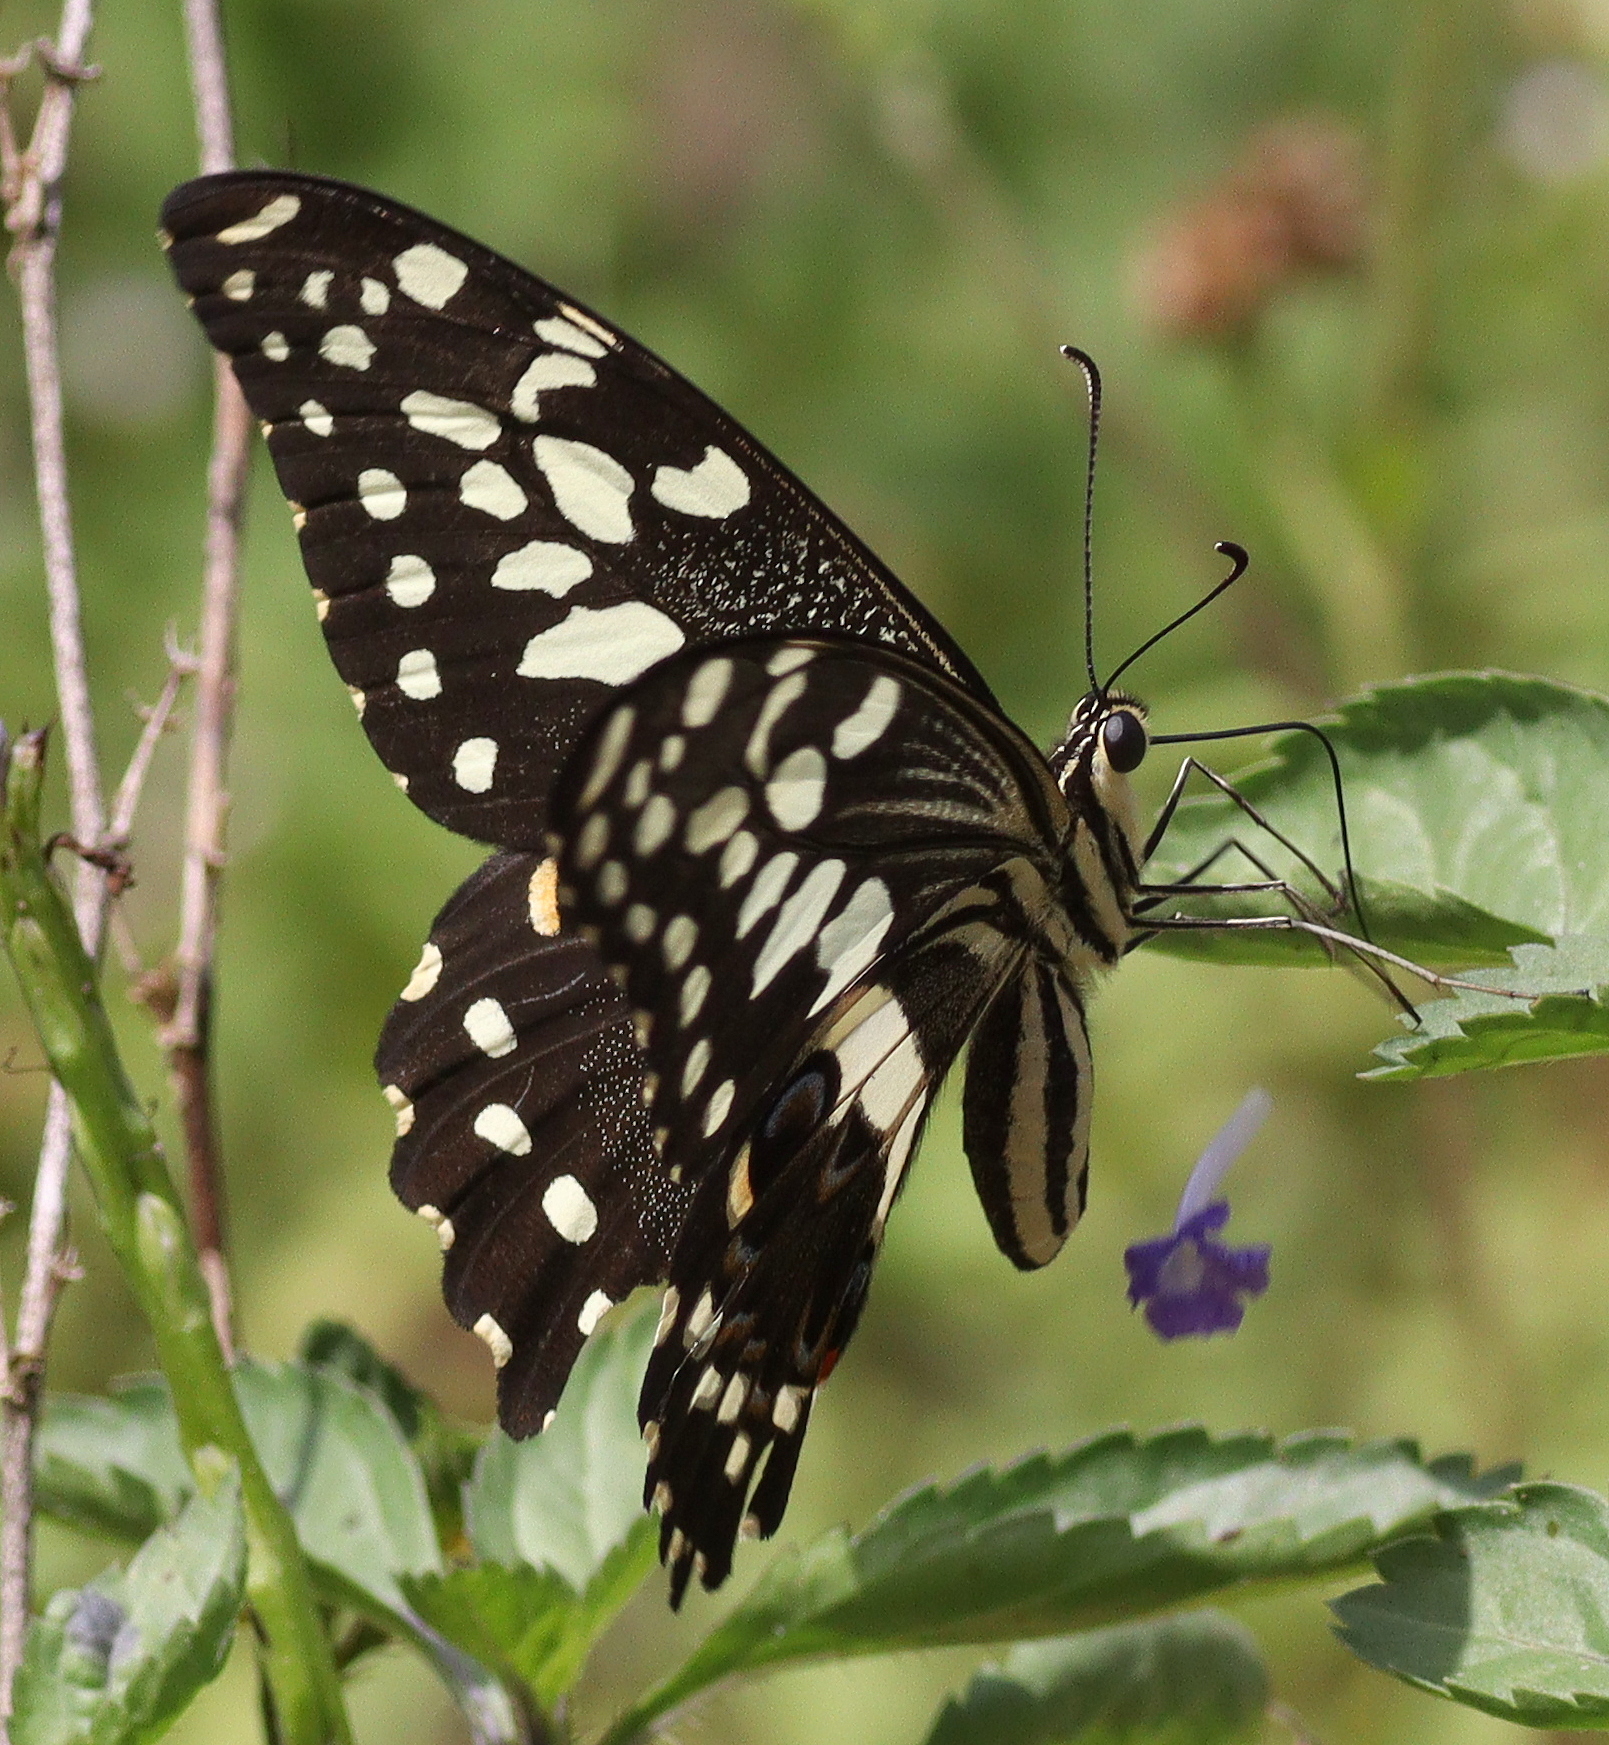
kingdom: Animalia
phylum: Arthropoda
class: Insecta
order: Lepidoptera
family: Papilionidae
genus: Papilio
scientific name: Papilio demodocus
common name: Christmas butterfly
